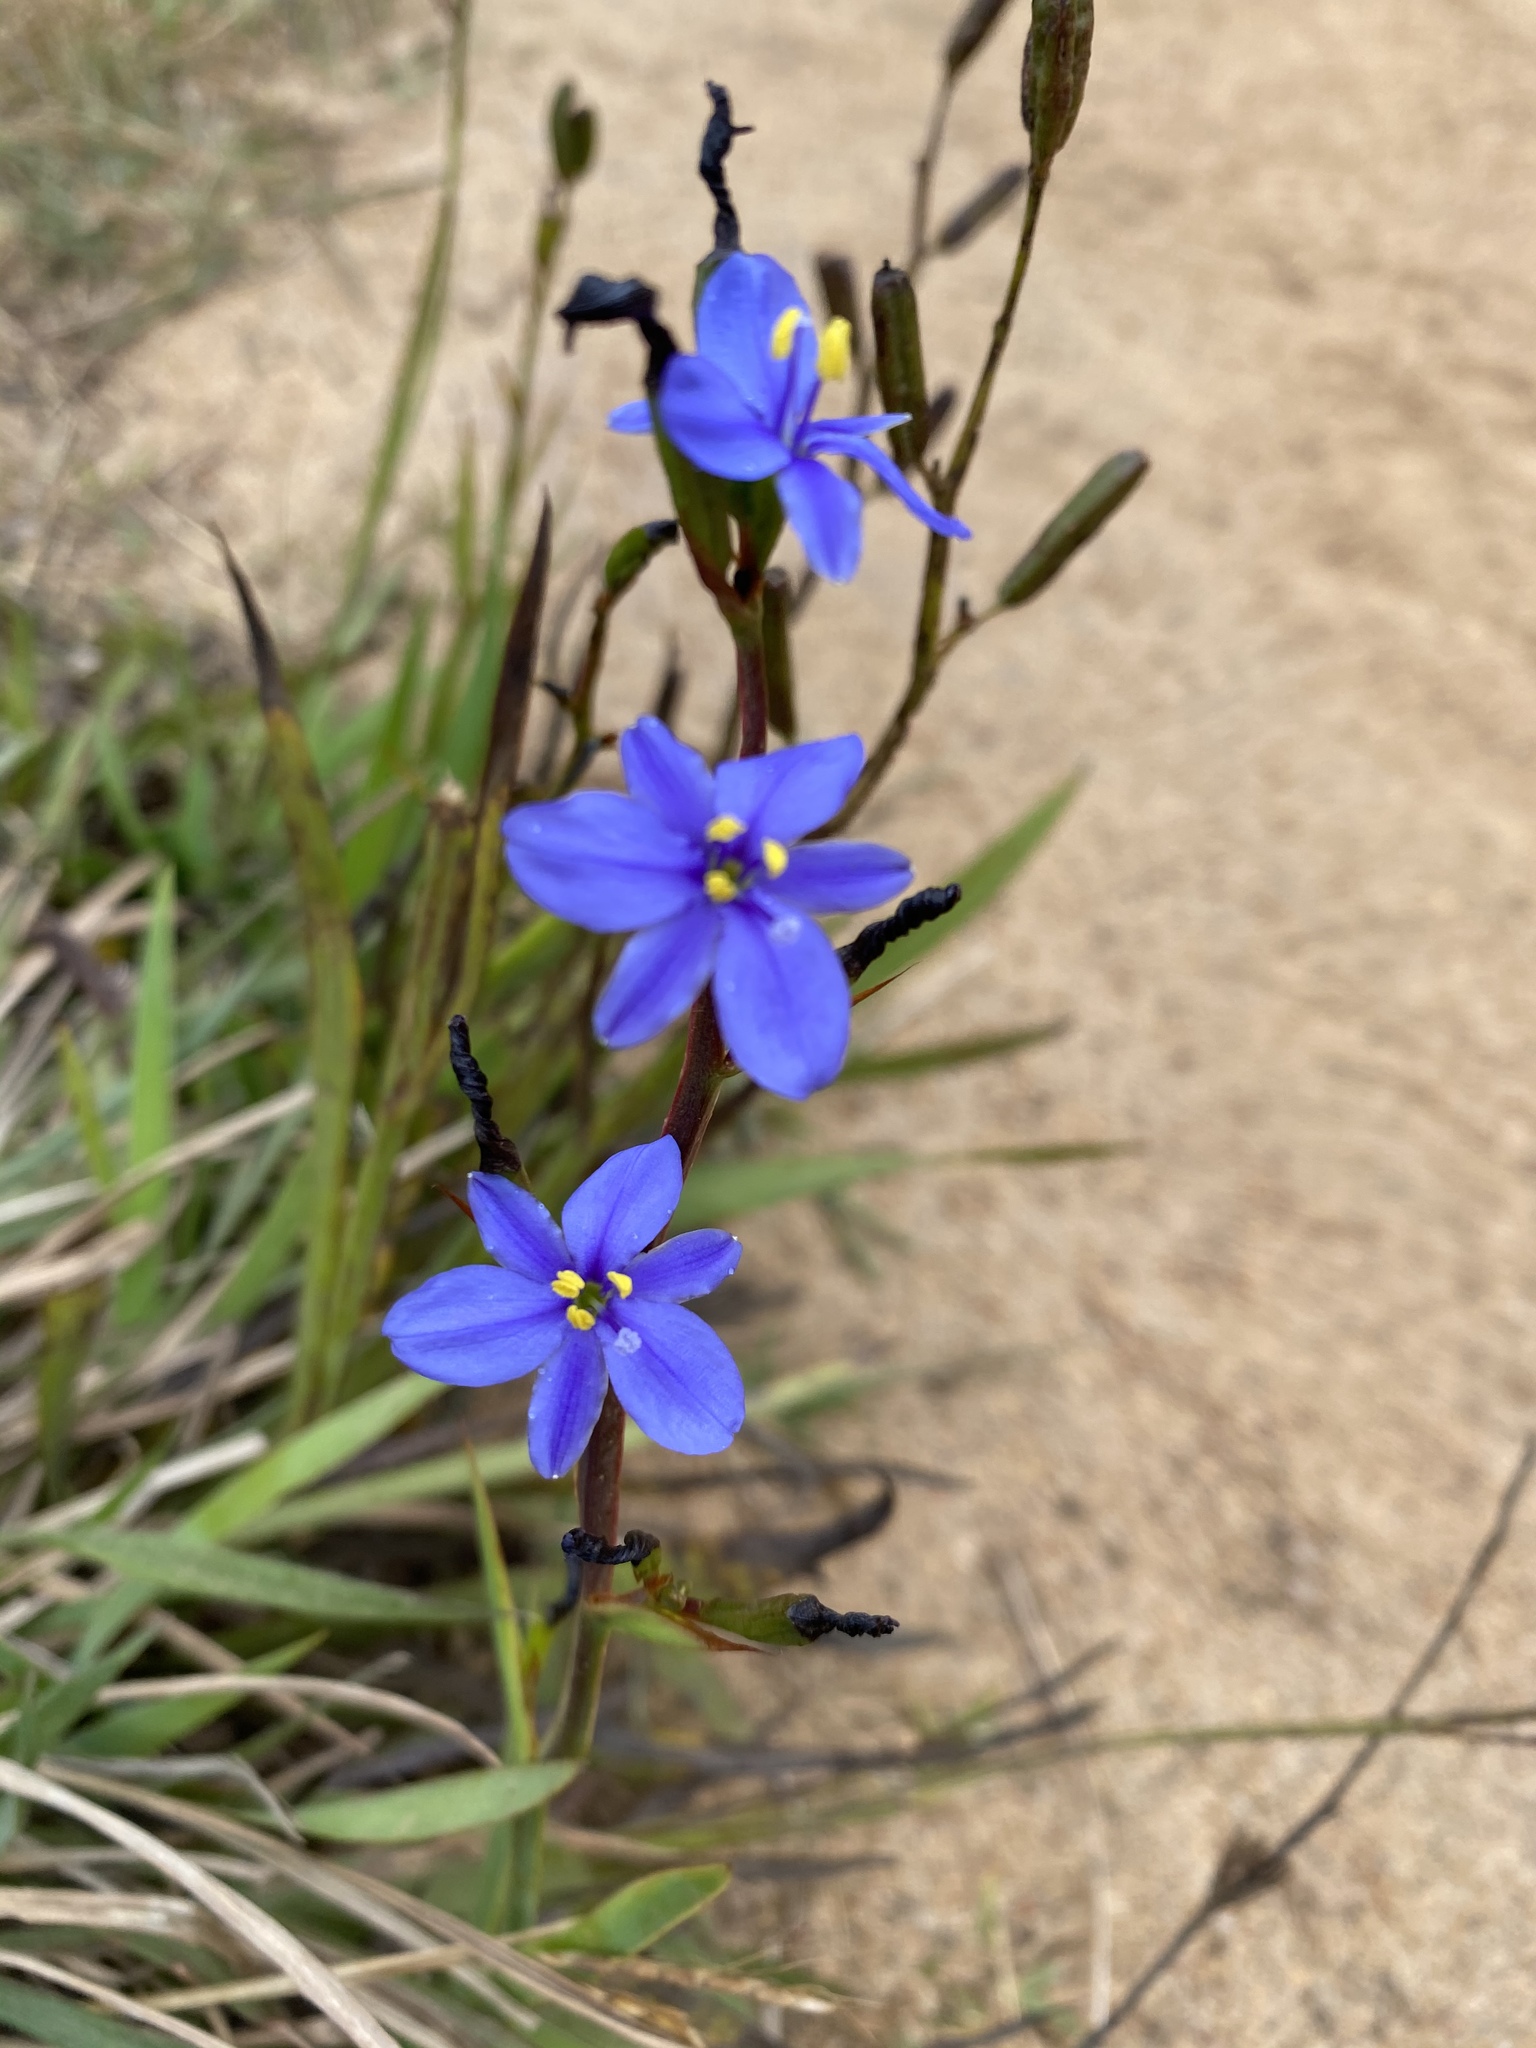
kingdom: Plantae
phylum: Tracheophyta
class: Liliopsida
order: Asparagales
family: Iridaceae
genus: Aristea
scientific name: Aristea ecklonii
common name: Blue corn-lily
